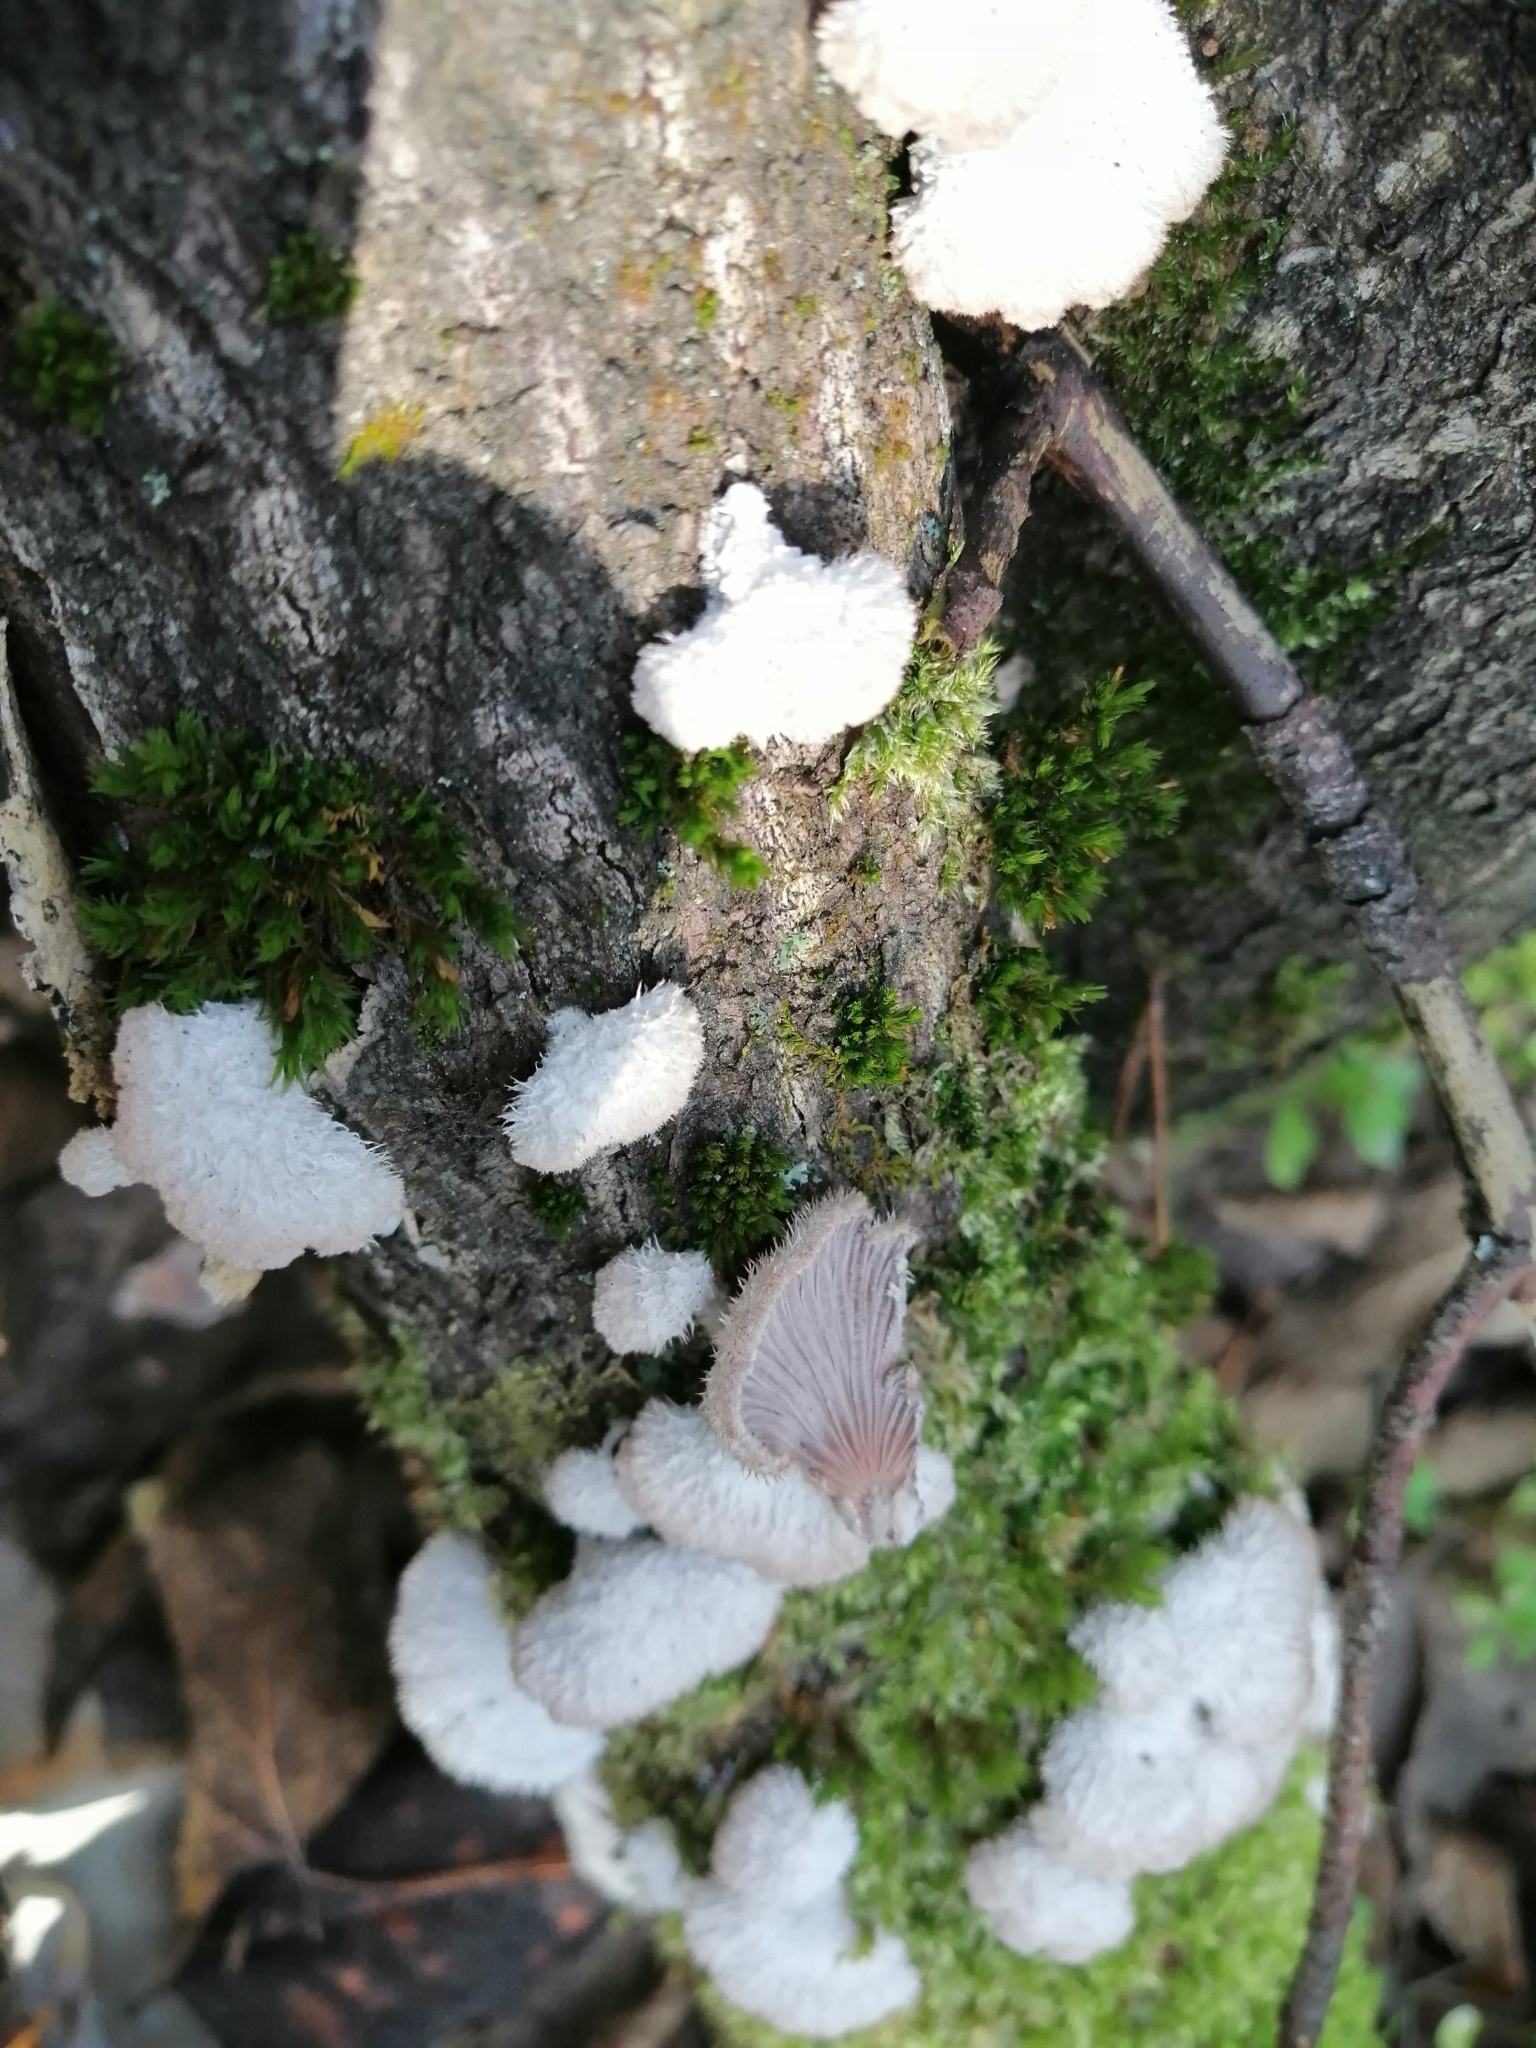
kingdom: Fungi
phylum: Basidiomycota
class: Agaricomycetes
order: Agaricales
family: Schizophyllaceae
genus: Schizophyllum
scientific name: Schizophyllum commune
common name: Common porecrust
